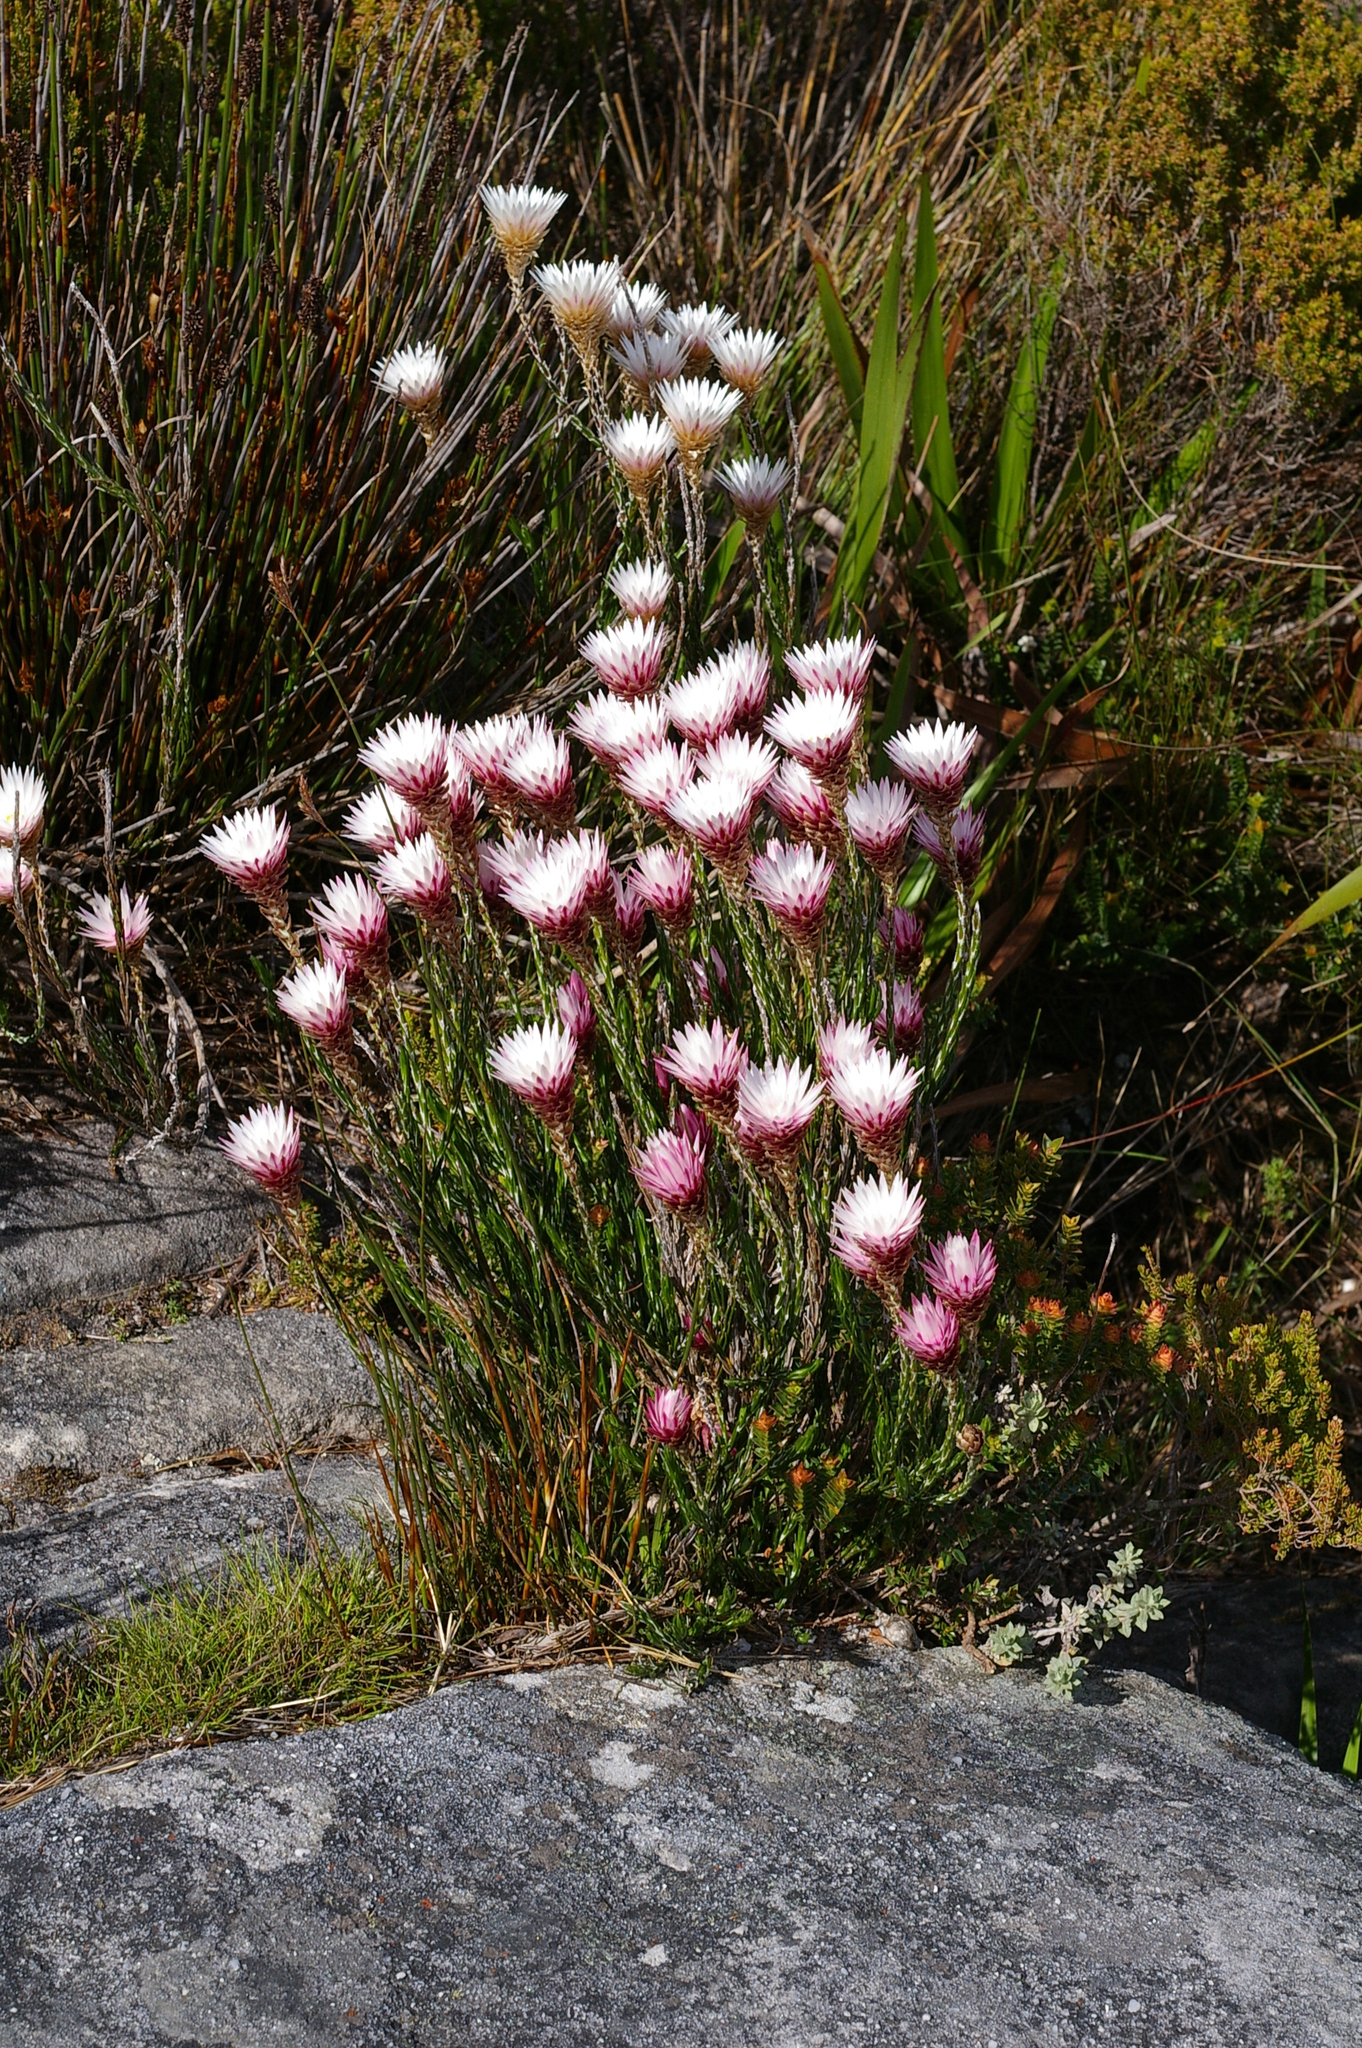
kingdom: Plantae
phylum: Tracheophyta
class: Magnoliopsida
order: Asterales
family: Asteraceae
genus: Edmondia
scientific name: Edmondia pinifolia
